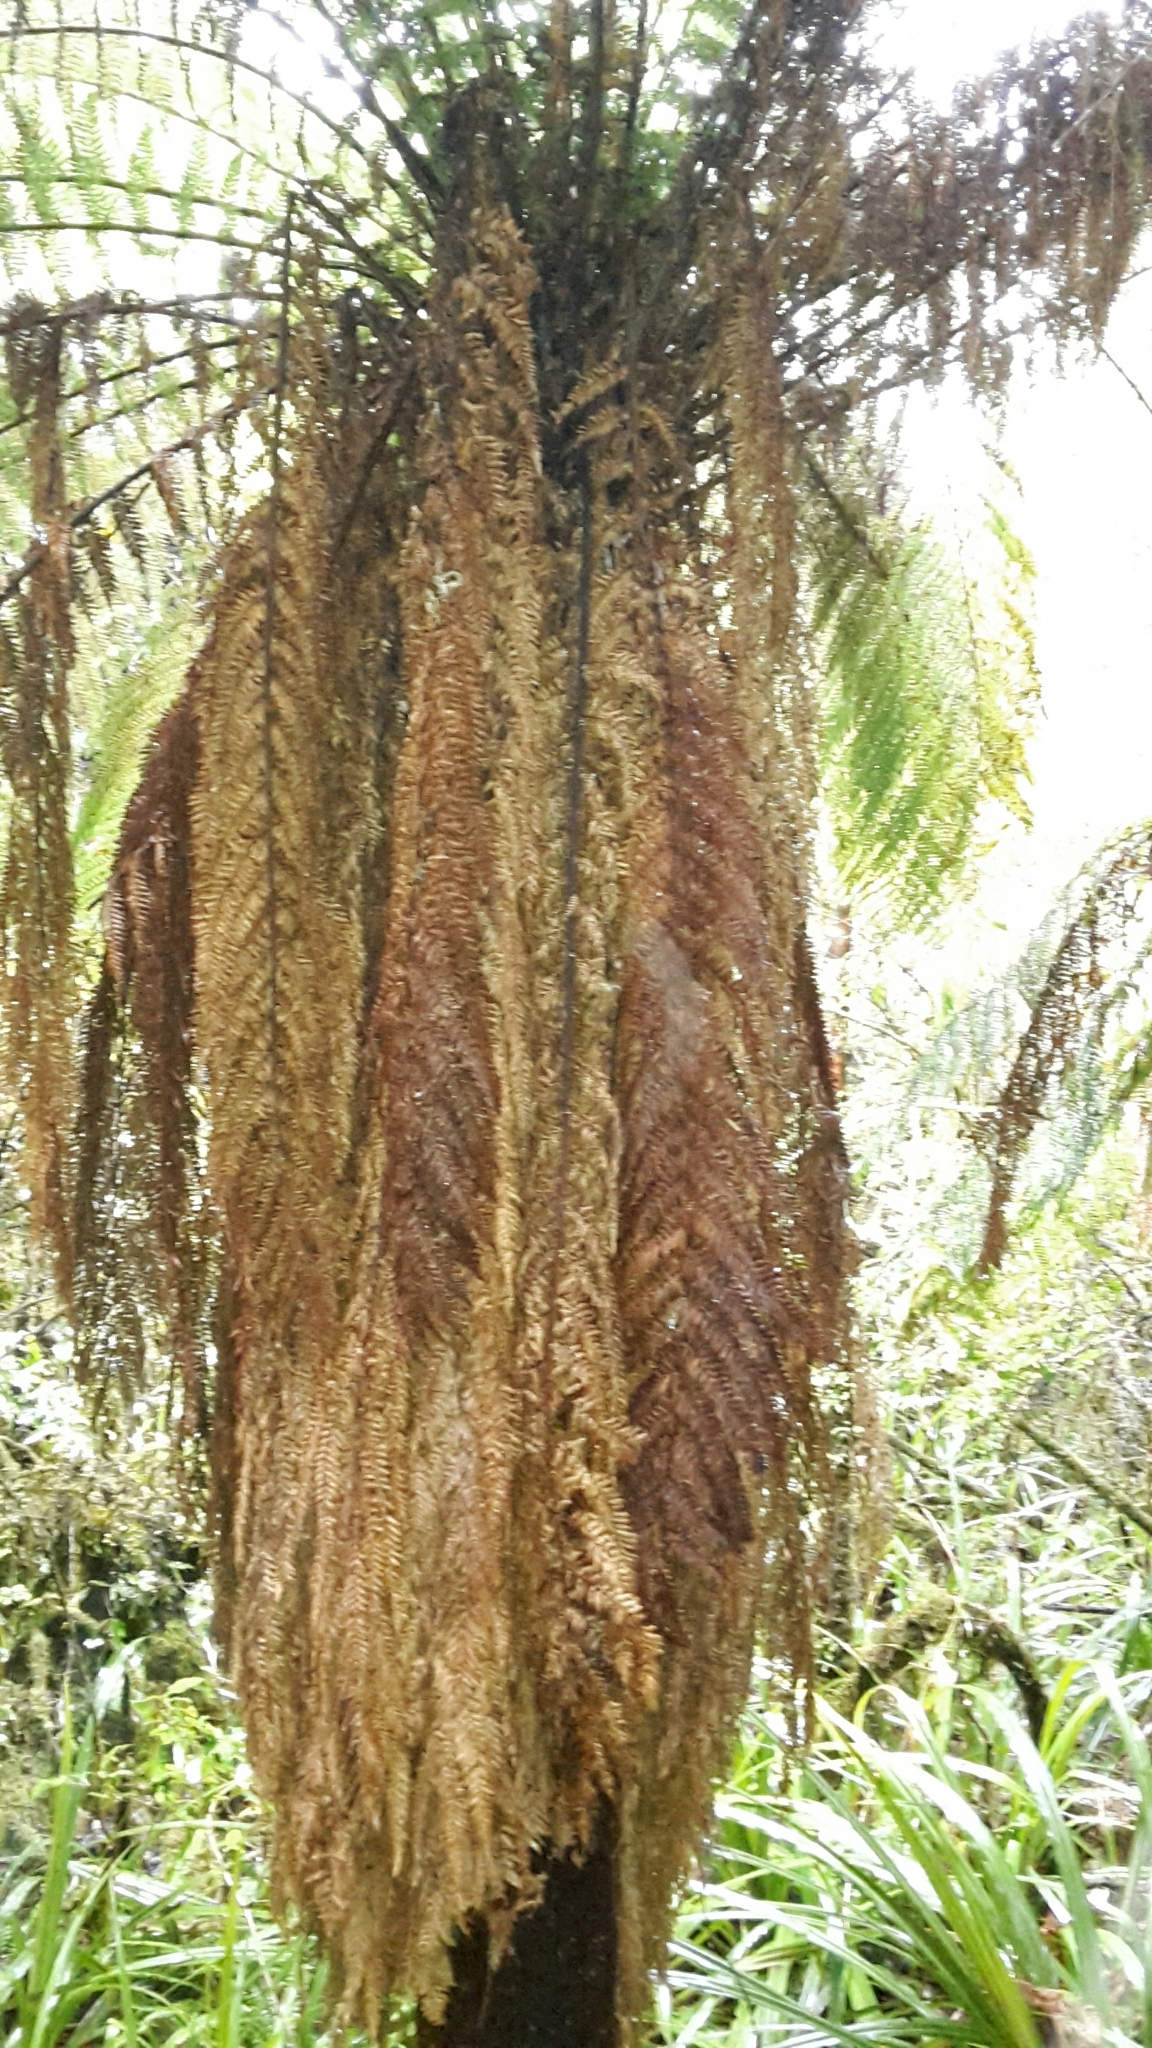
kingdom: Plantae
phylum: Tracheophyta
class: Polypodiopsida
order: Cyatheales
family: Dicksoniaceae
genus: Dicksonia
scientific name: Dicksonia fibrosa
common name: Golden tree fern
